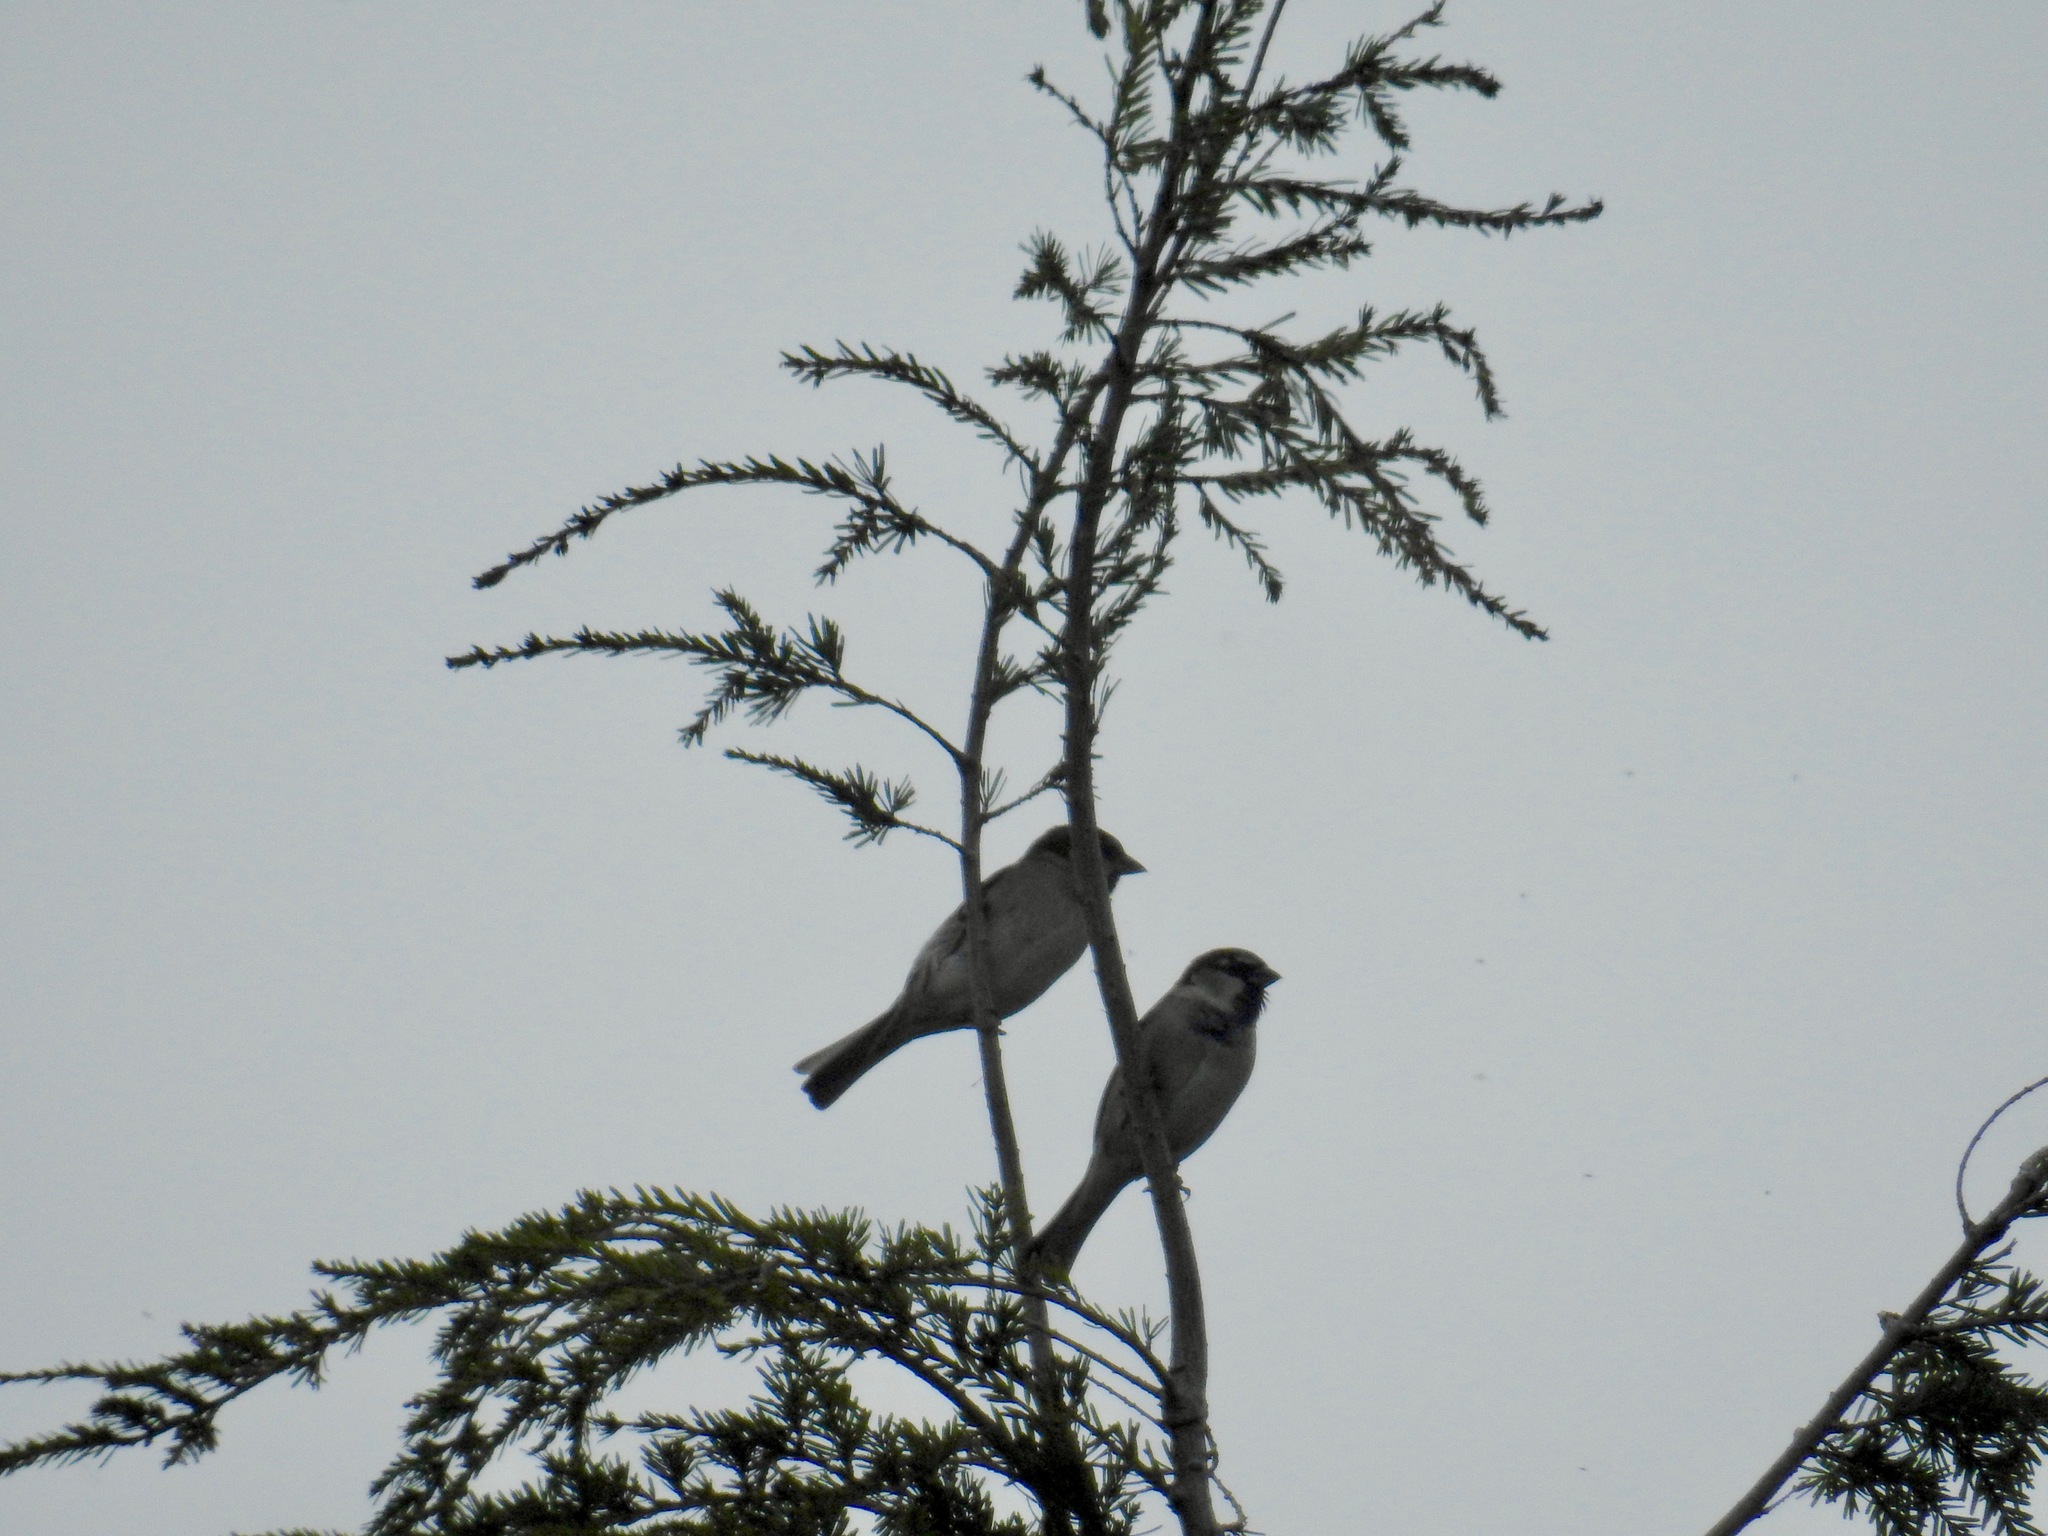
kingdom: Animalia
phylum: Chordata
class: Aves
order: Passeriformes
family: Passeridae
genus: Passer
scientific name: Passer domesticus
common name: House sparrow
